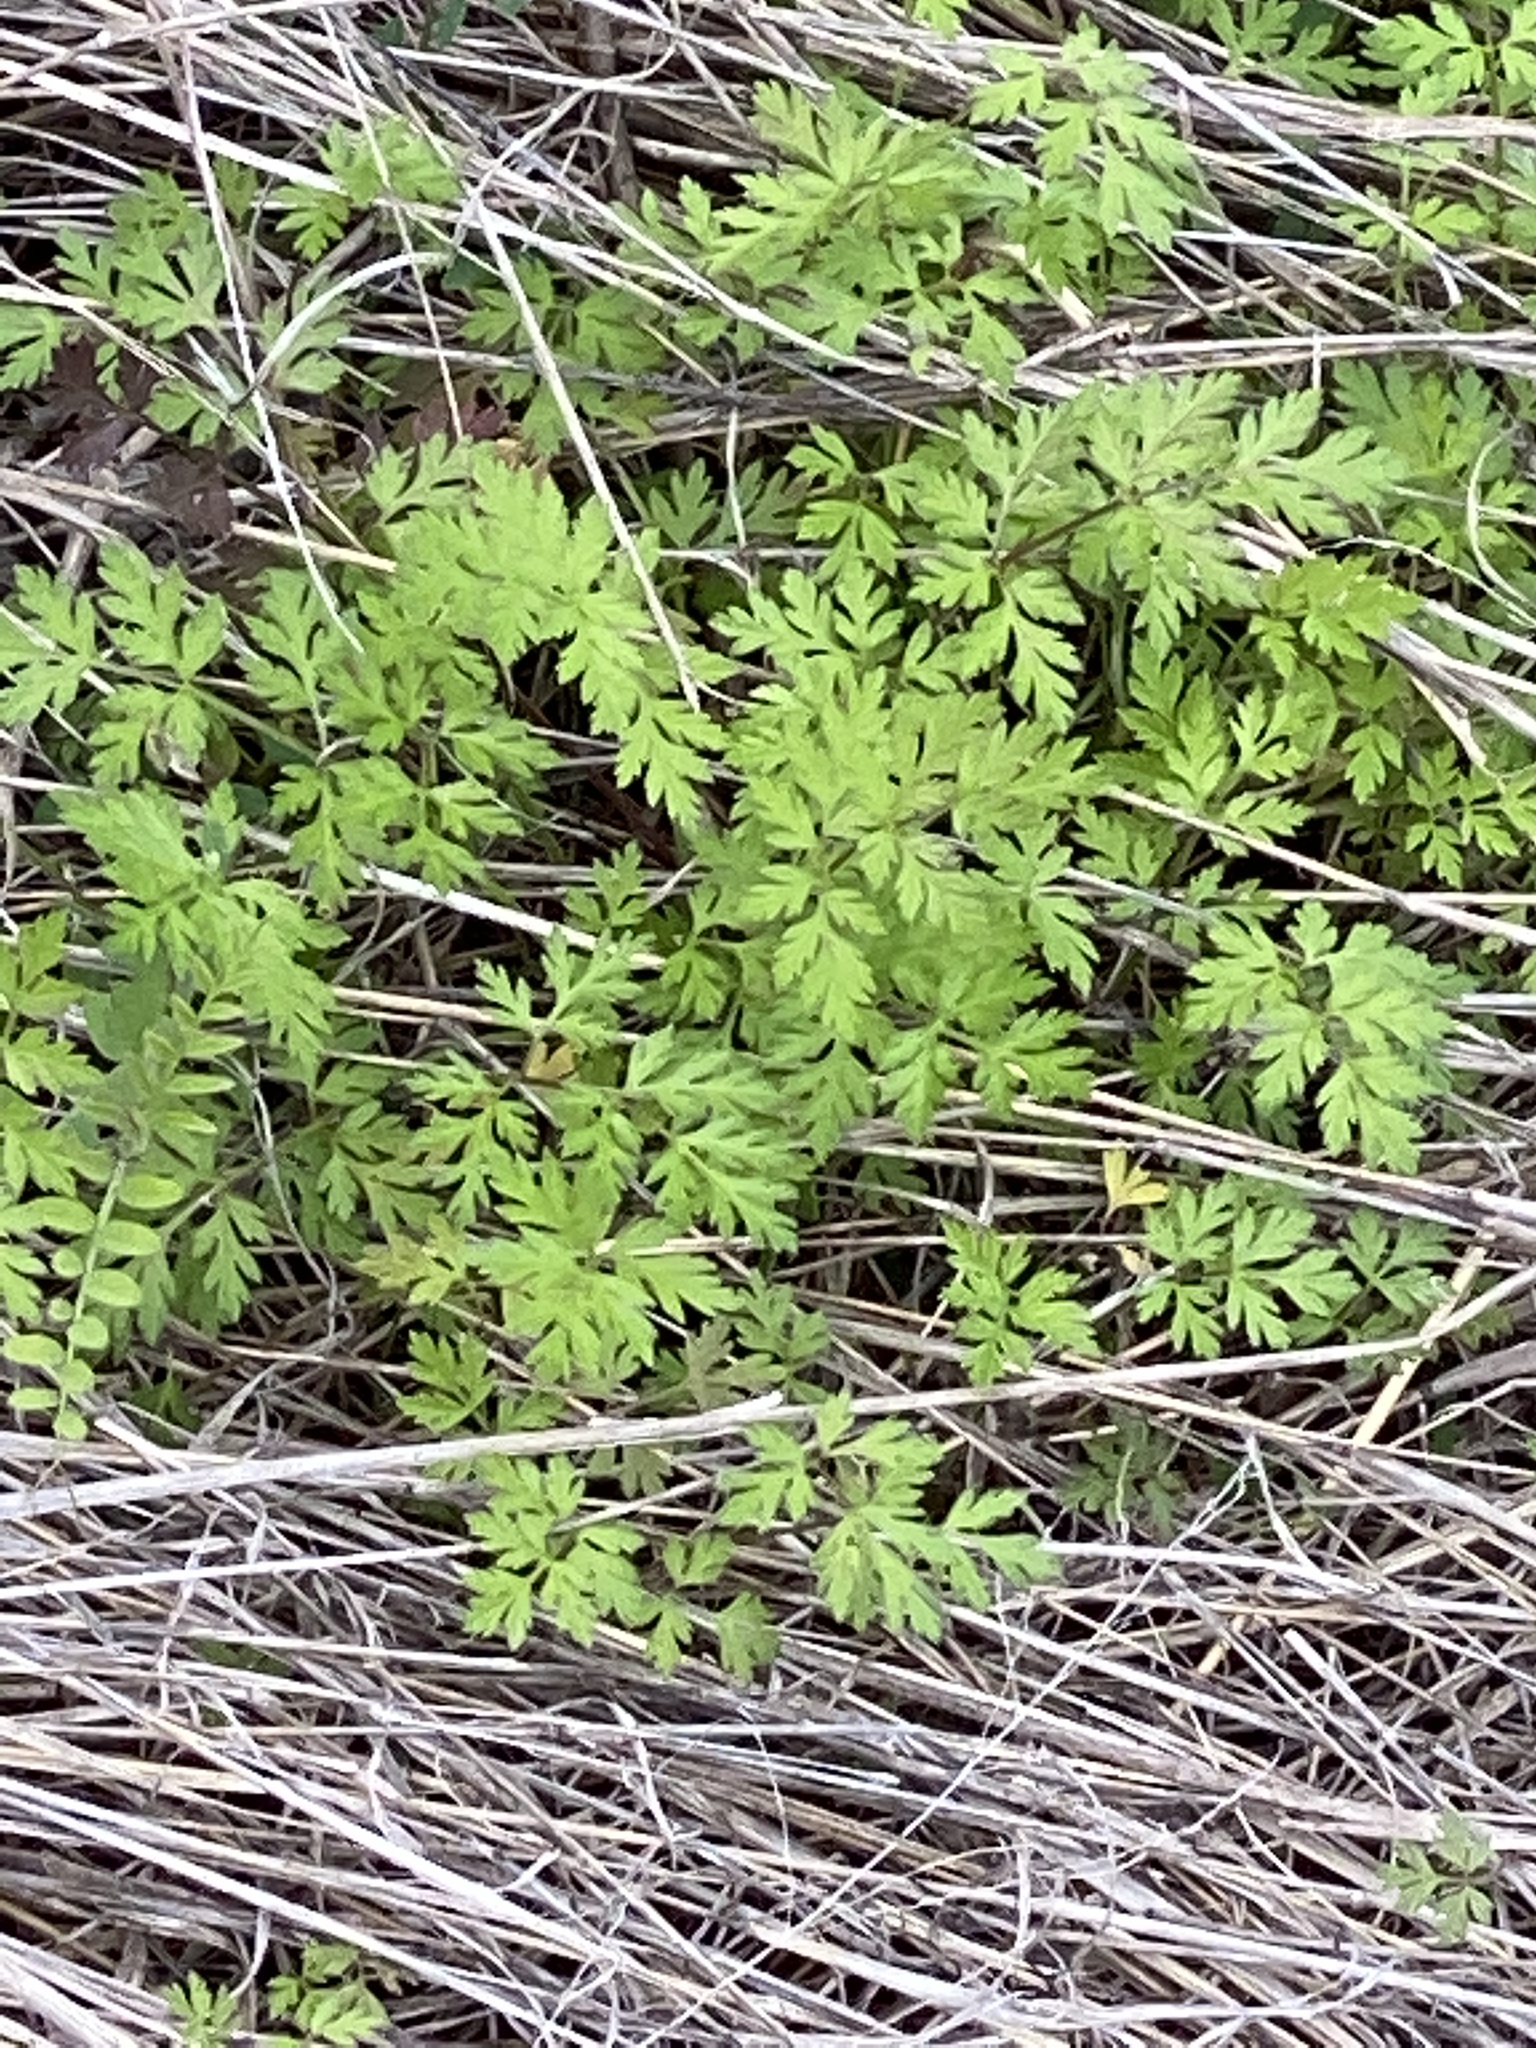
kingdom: Plantae
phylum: Tracheophyta
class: Magnoliopsida
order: Apiales
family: Apiaceae
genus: Torilis
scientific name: Torilis arvensis
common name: Spreading hedge-parsley
